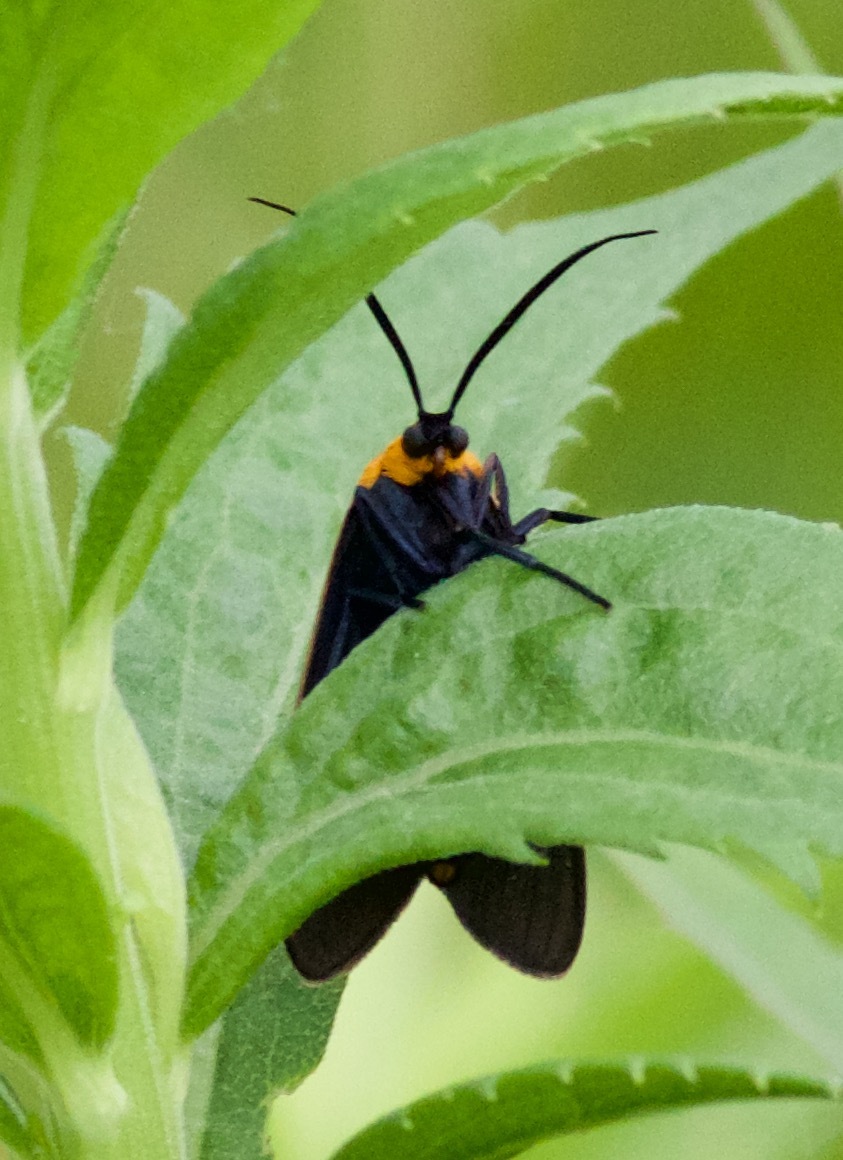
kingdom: Animalia
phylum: Arthropoda
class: Insecta
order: Lepidoptera
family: Erebidae
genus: Cisseps
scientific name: Cisseps fulvicollis
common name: Yellow-collared scape moth
